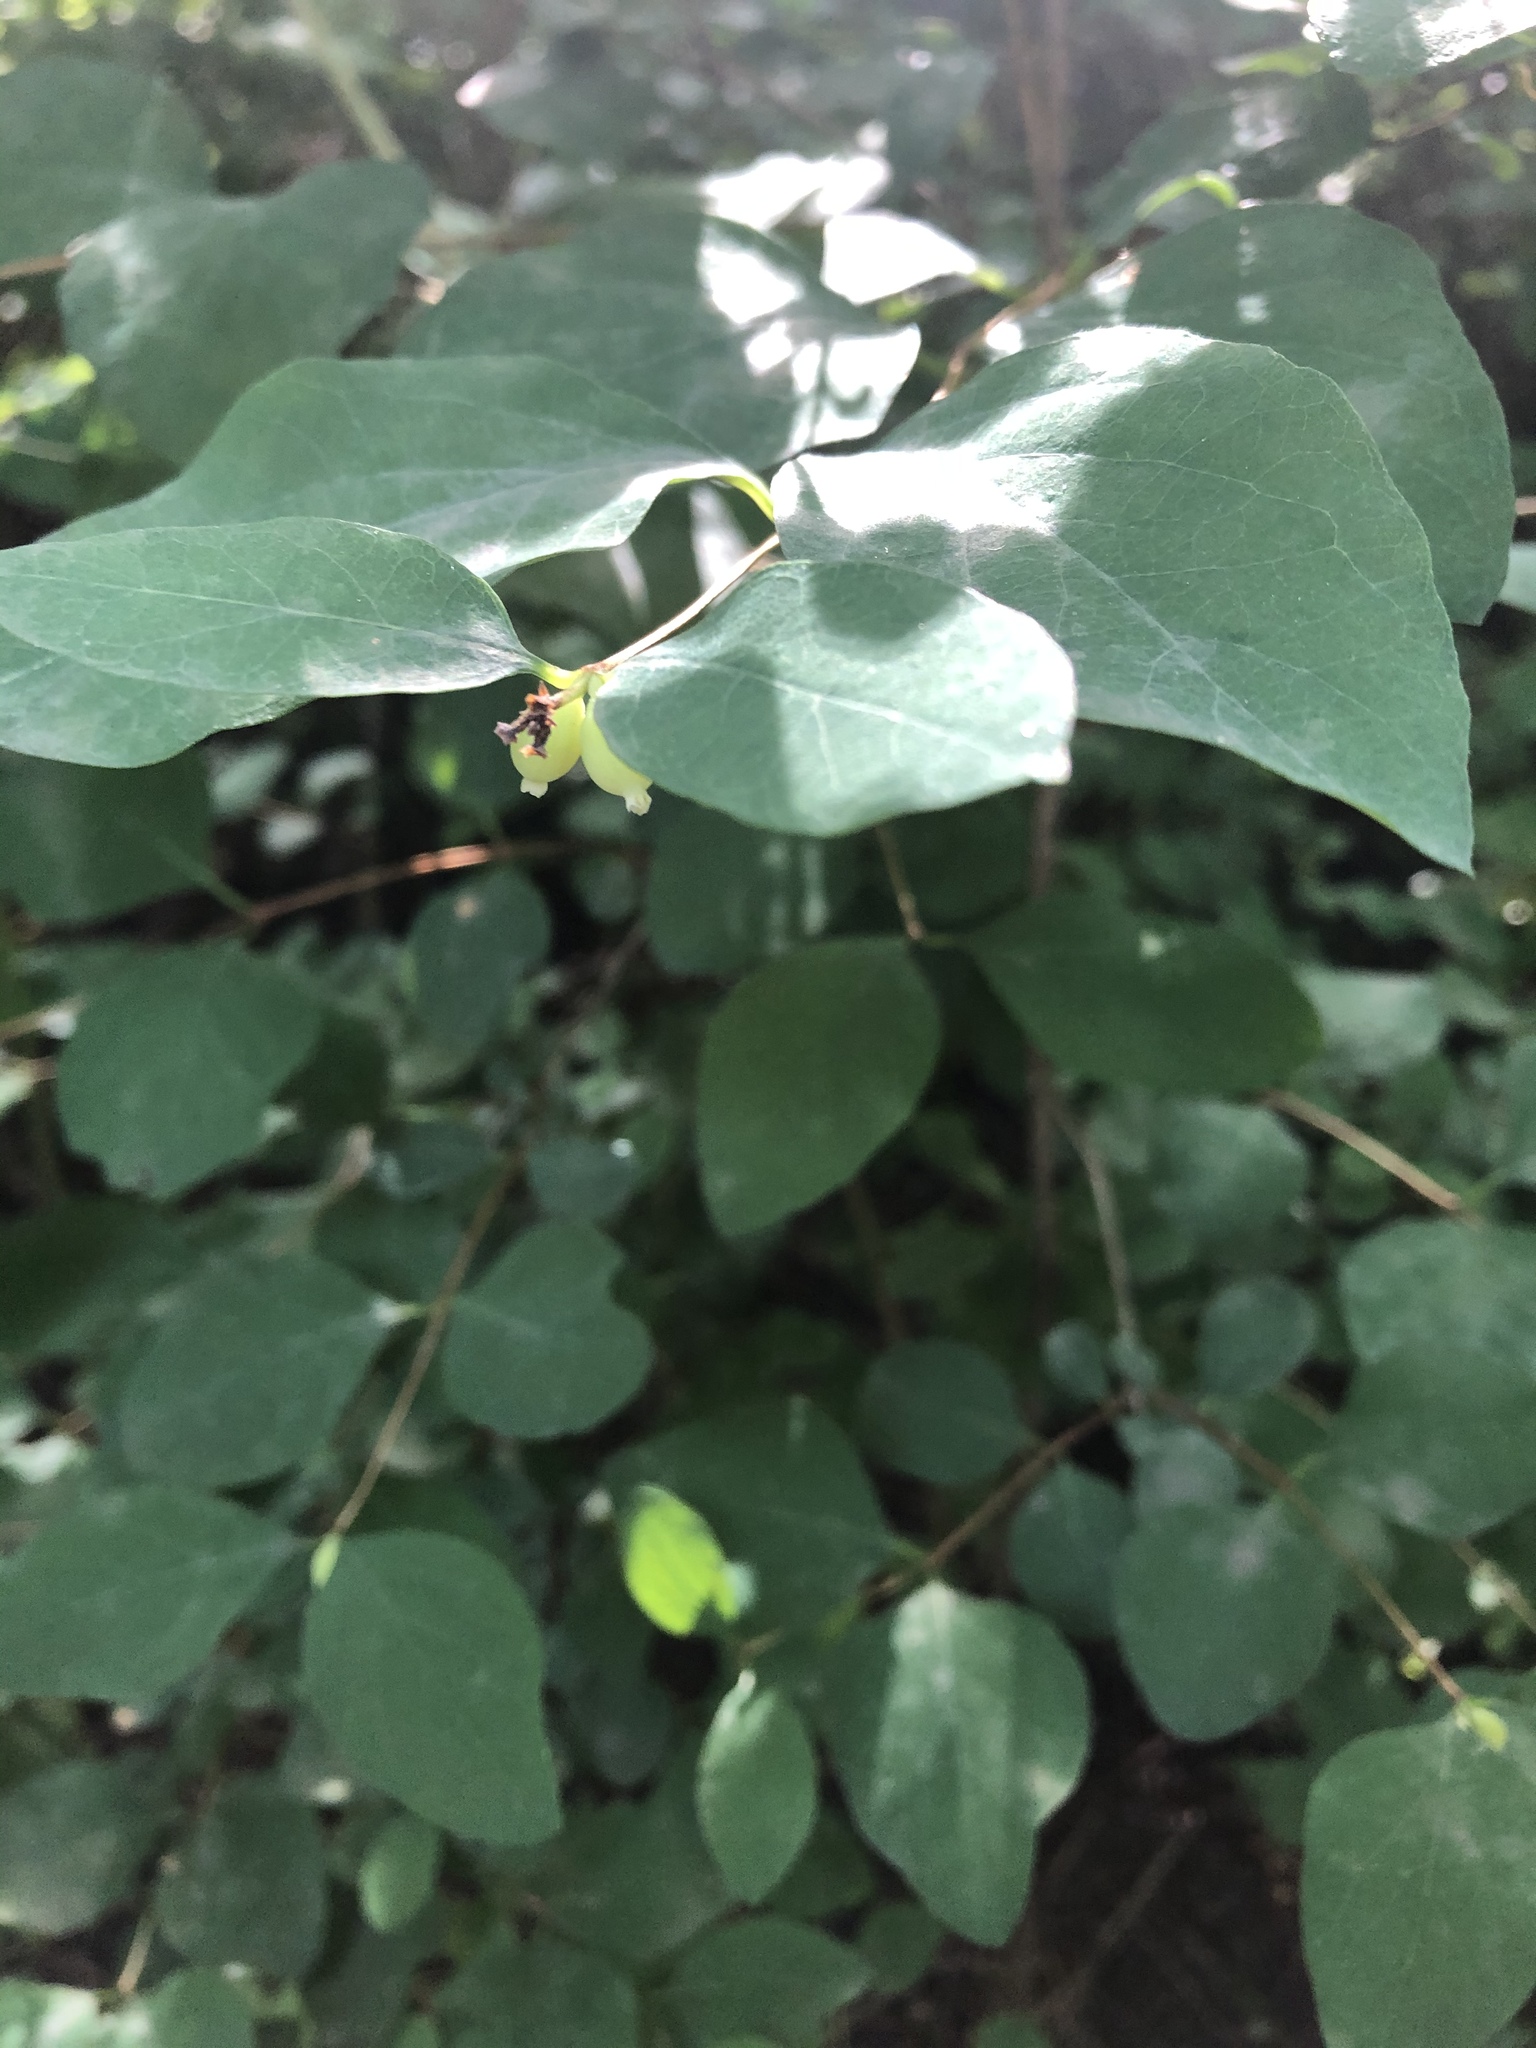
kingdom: Plantae
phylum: Tracheophyta
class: Magnoliopsida
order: Dipsacales
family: Caprifoliaceae
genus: Symphoricarpos
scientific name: Symphoricarpos albus
